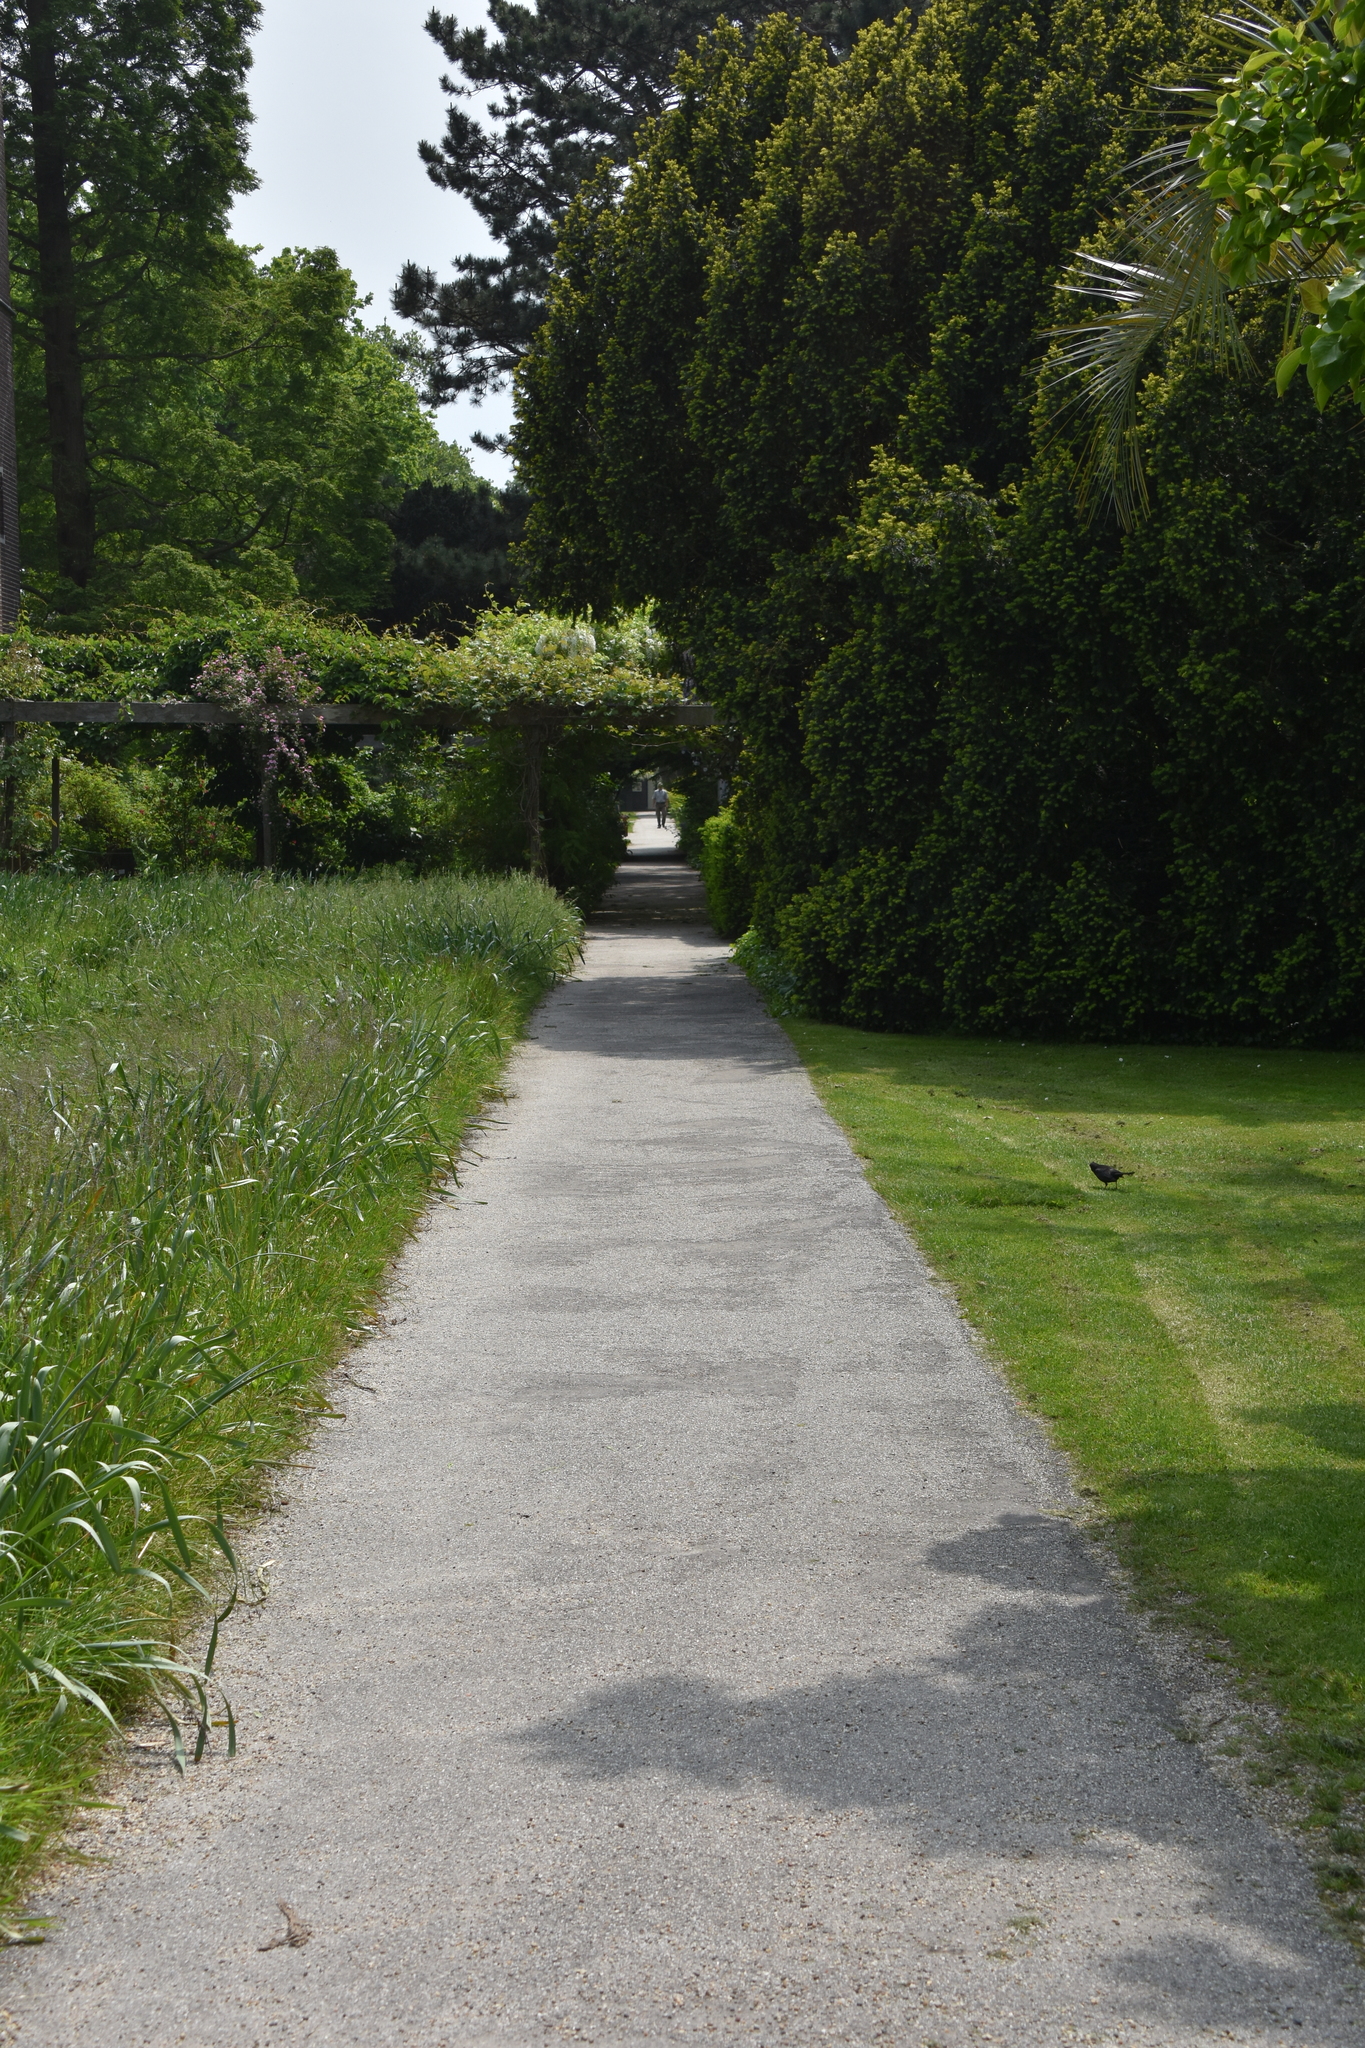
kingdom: Animalia
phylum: Chordata
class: Aves
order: Passeriformes
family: Turdidae
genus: Turdus
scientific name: Turdus merula
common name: Common blackbird
